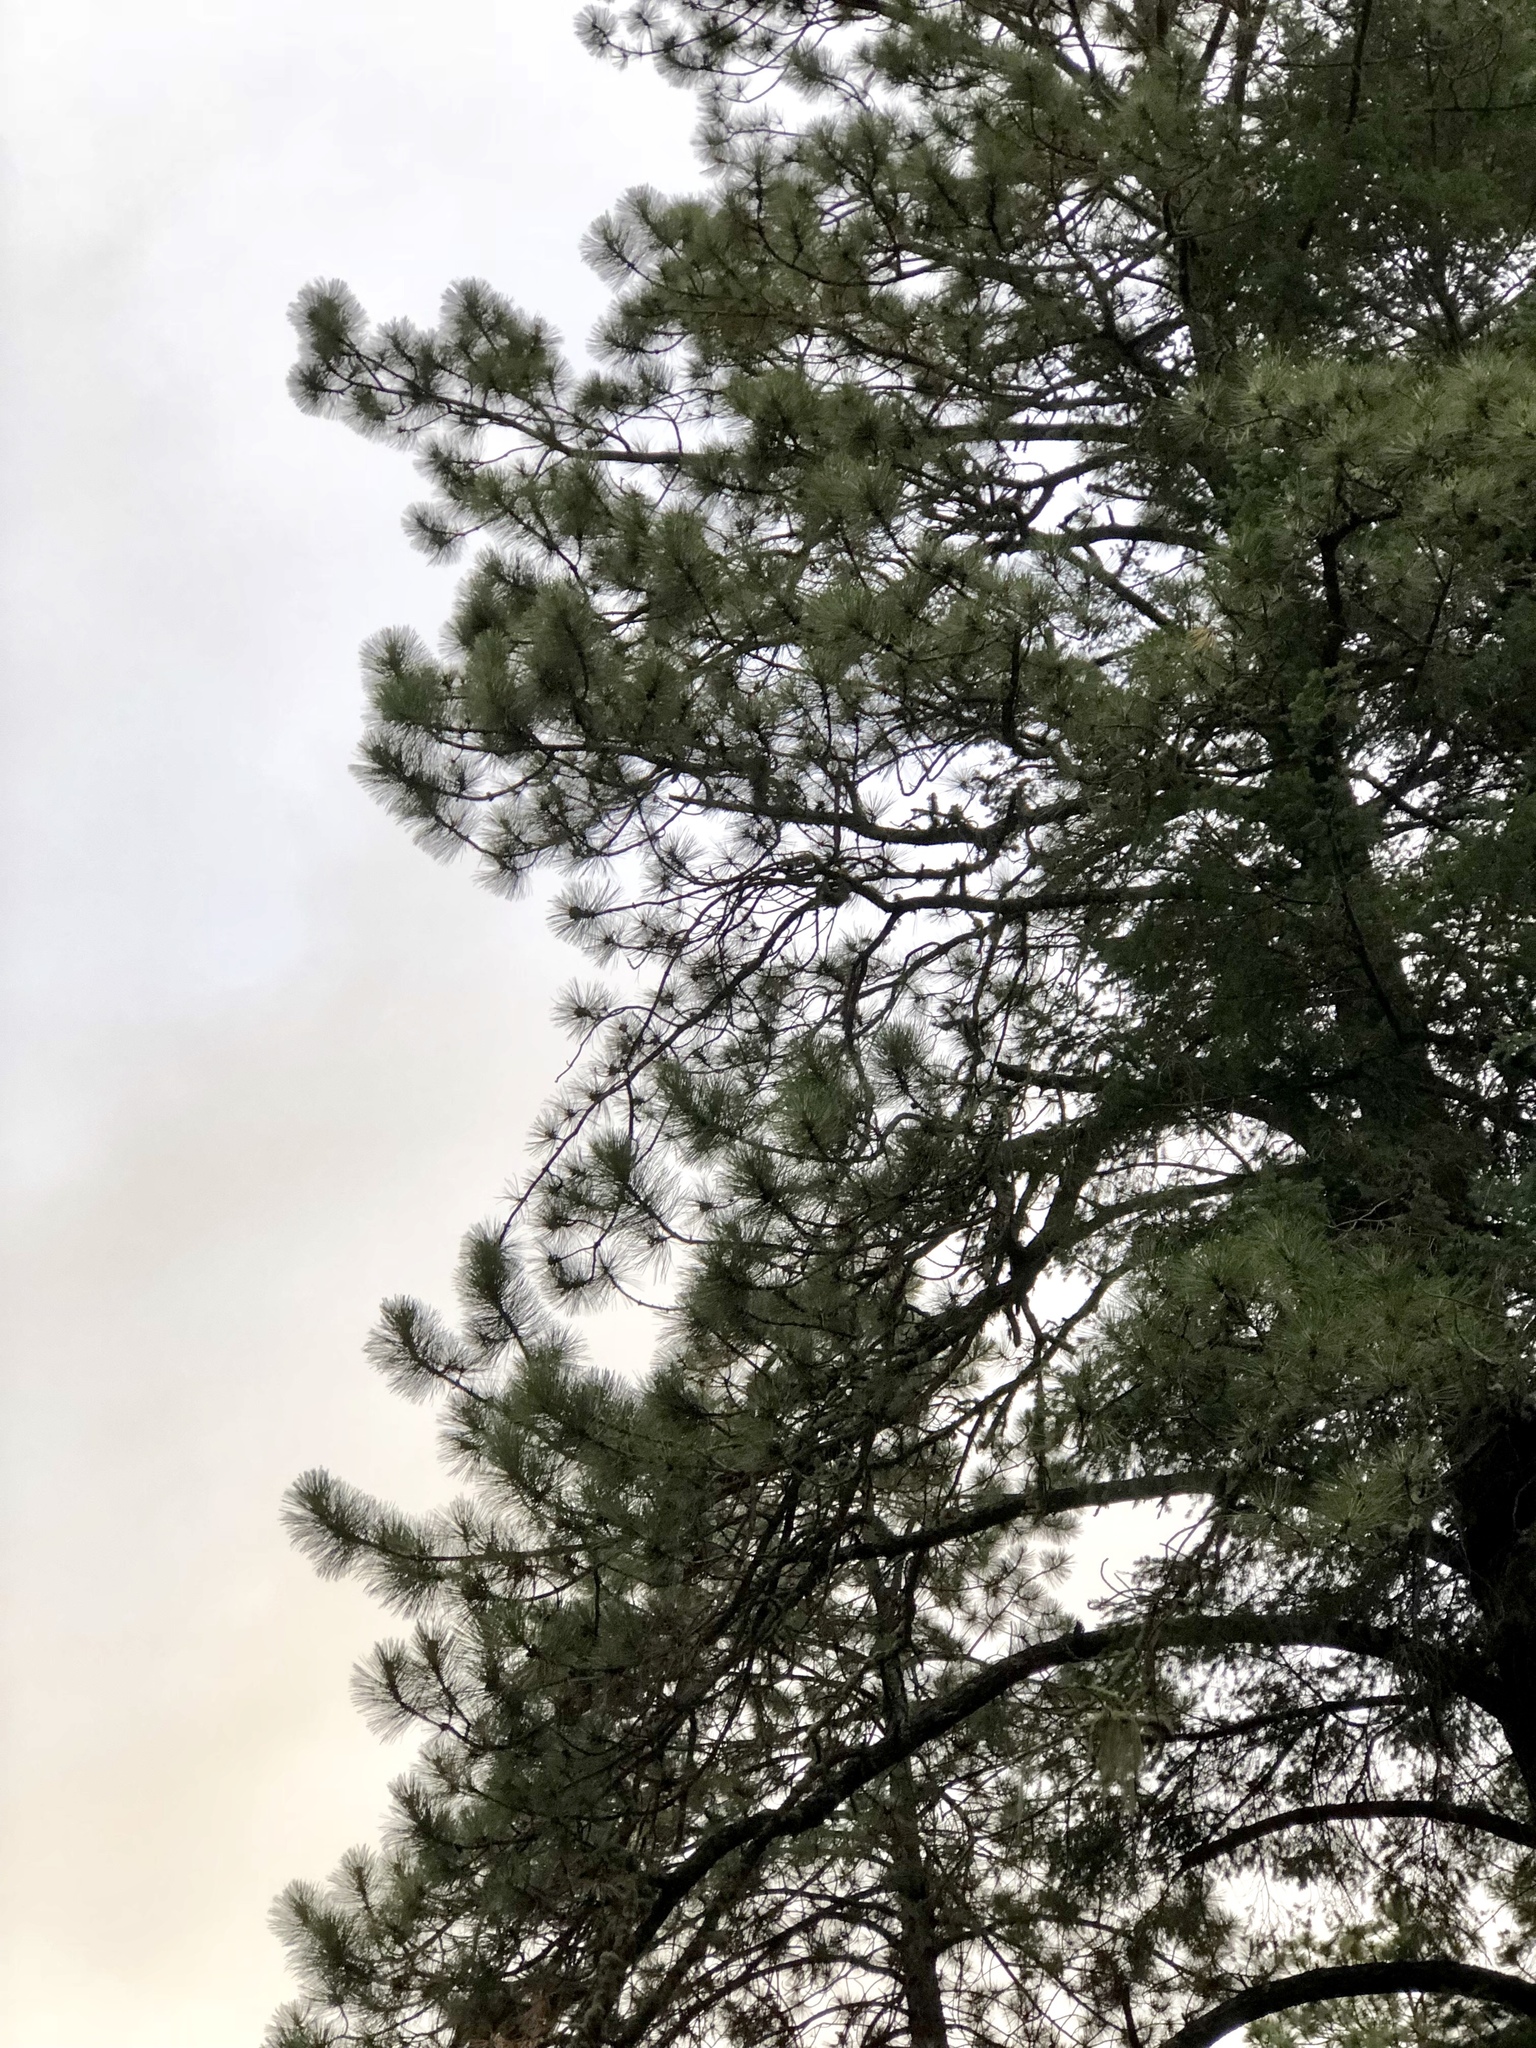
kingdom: Plantae
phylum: Tracheophyta
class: Pinopsida
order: Pinales
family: Pinaceae
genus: Pinus
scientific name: Pinus ponderosa
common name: Western yellow-pine
